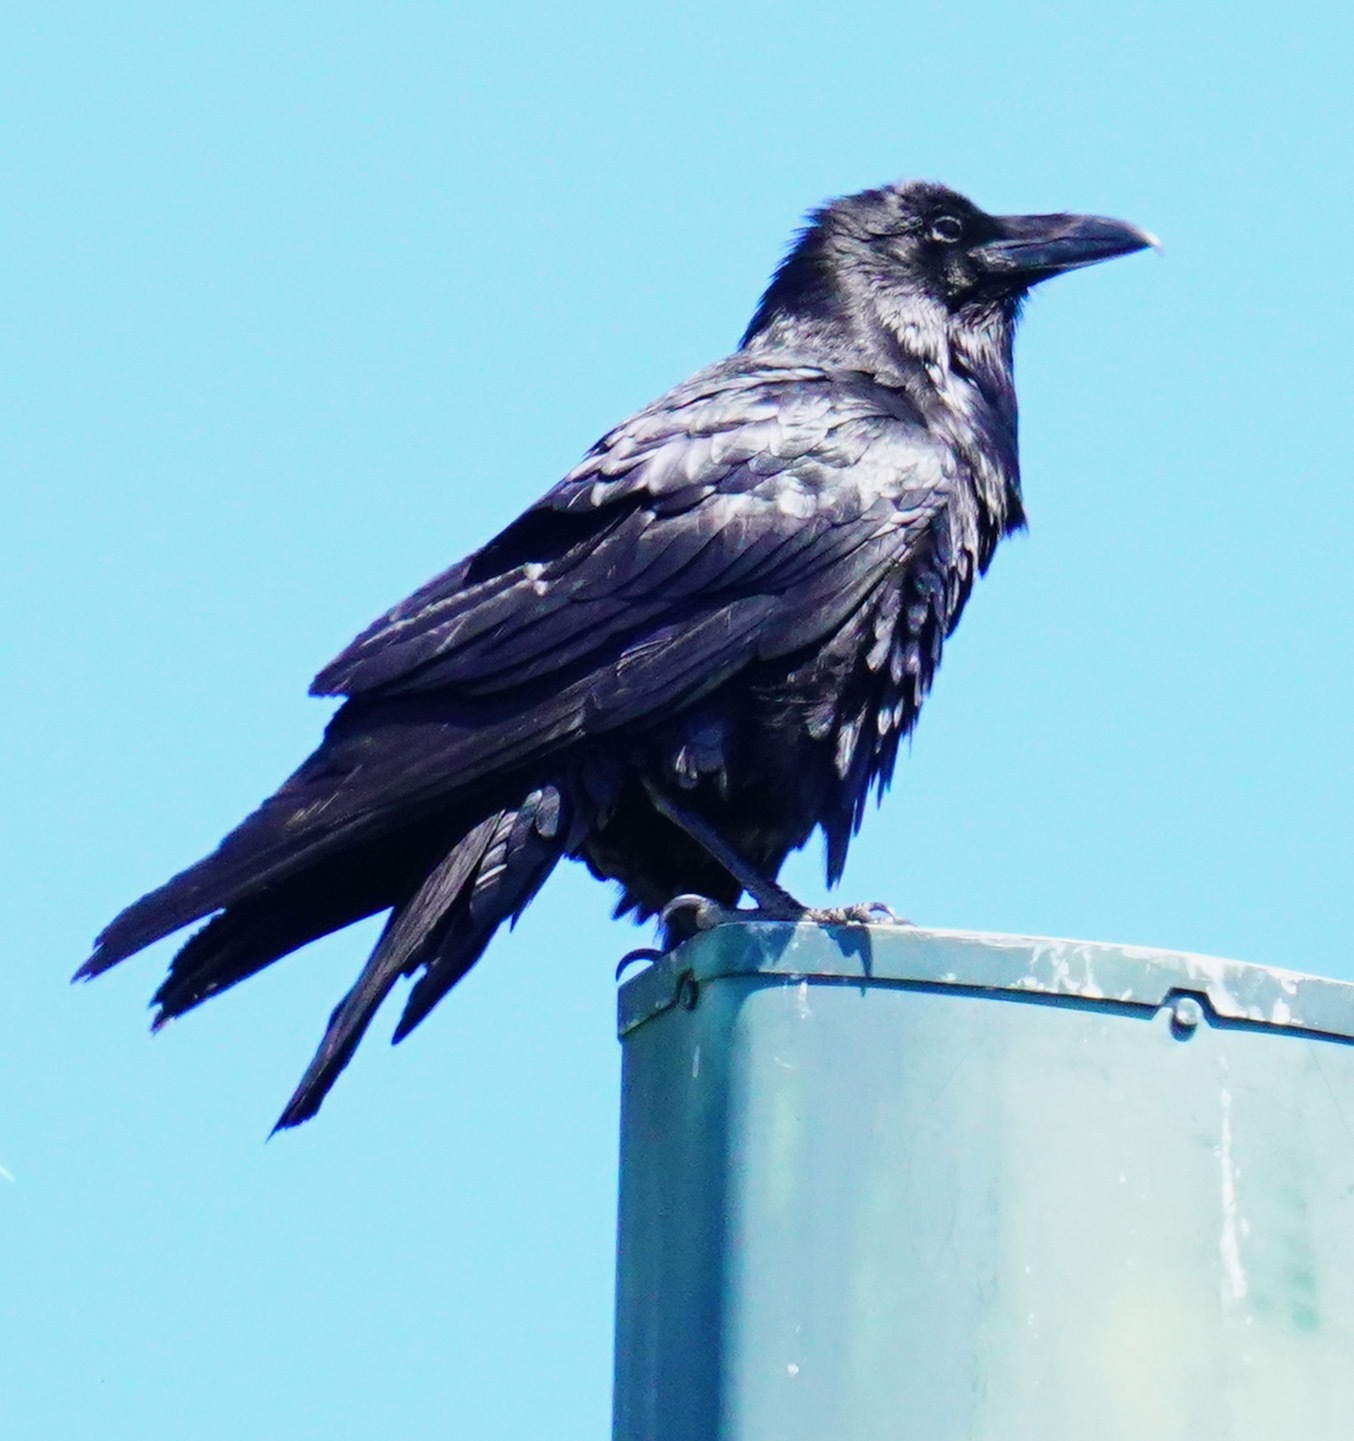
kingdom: Animalia
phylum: Chordata
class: Aves
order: Passeriformes
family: Corvidae
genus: Corvus
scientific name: Corvus corax
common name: Common raven
